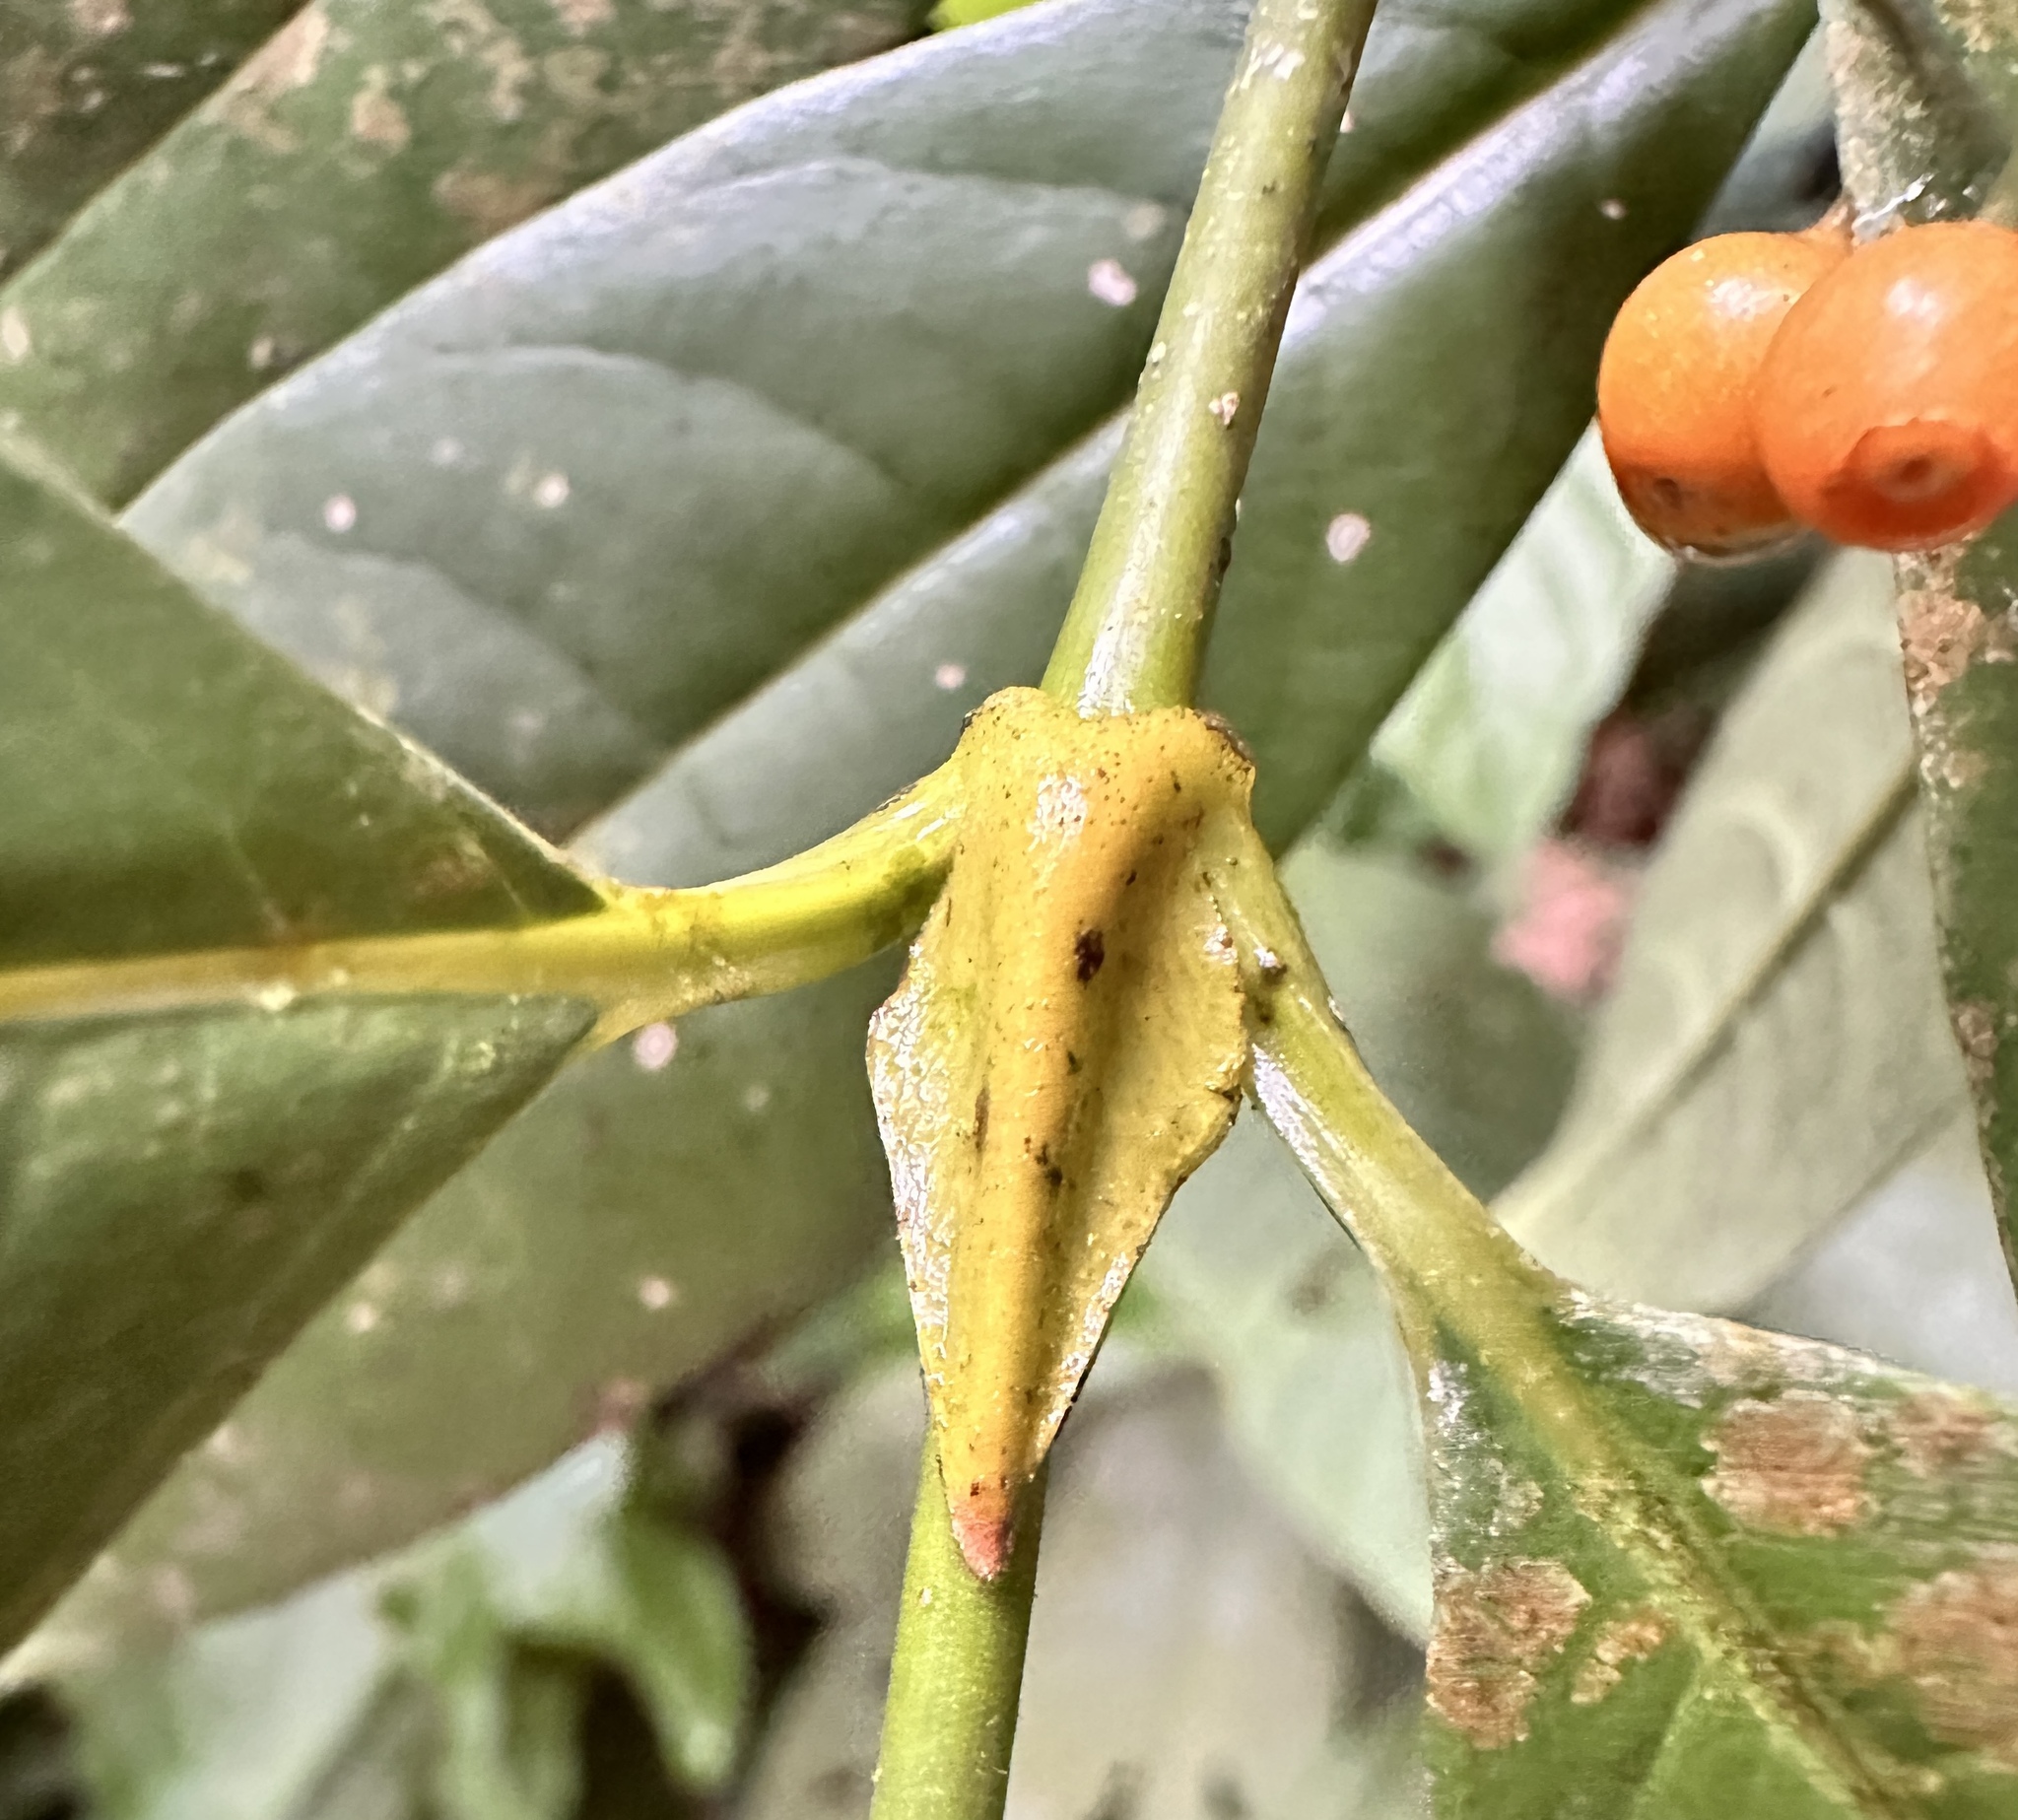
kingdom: Plantae
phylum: Tracheophyta
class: Magnoliopsida
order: Gentianales
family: Rubiaceae
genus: Urophyllum
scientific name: Urophyllum griffithianum
